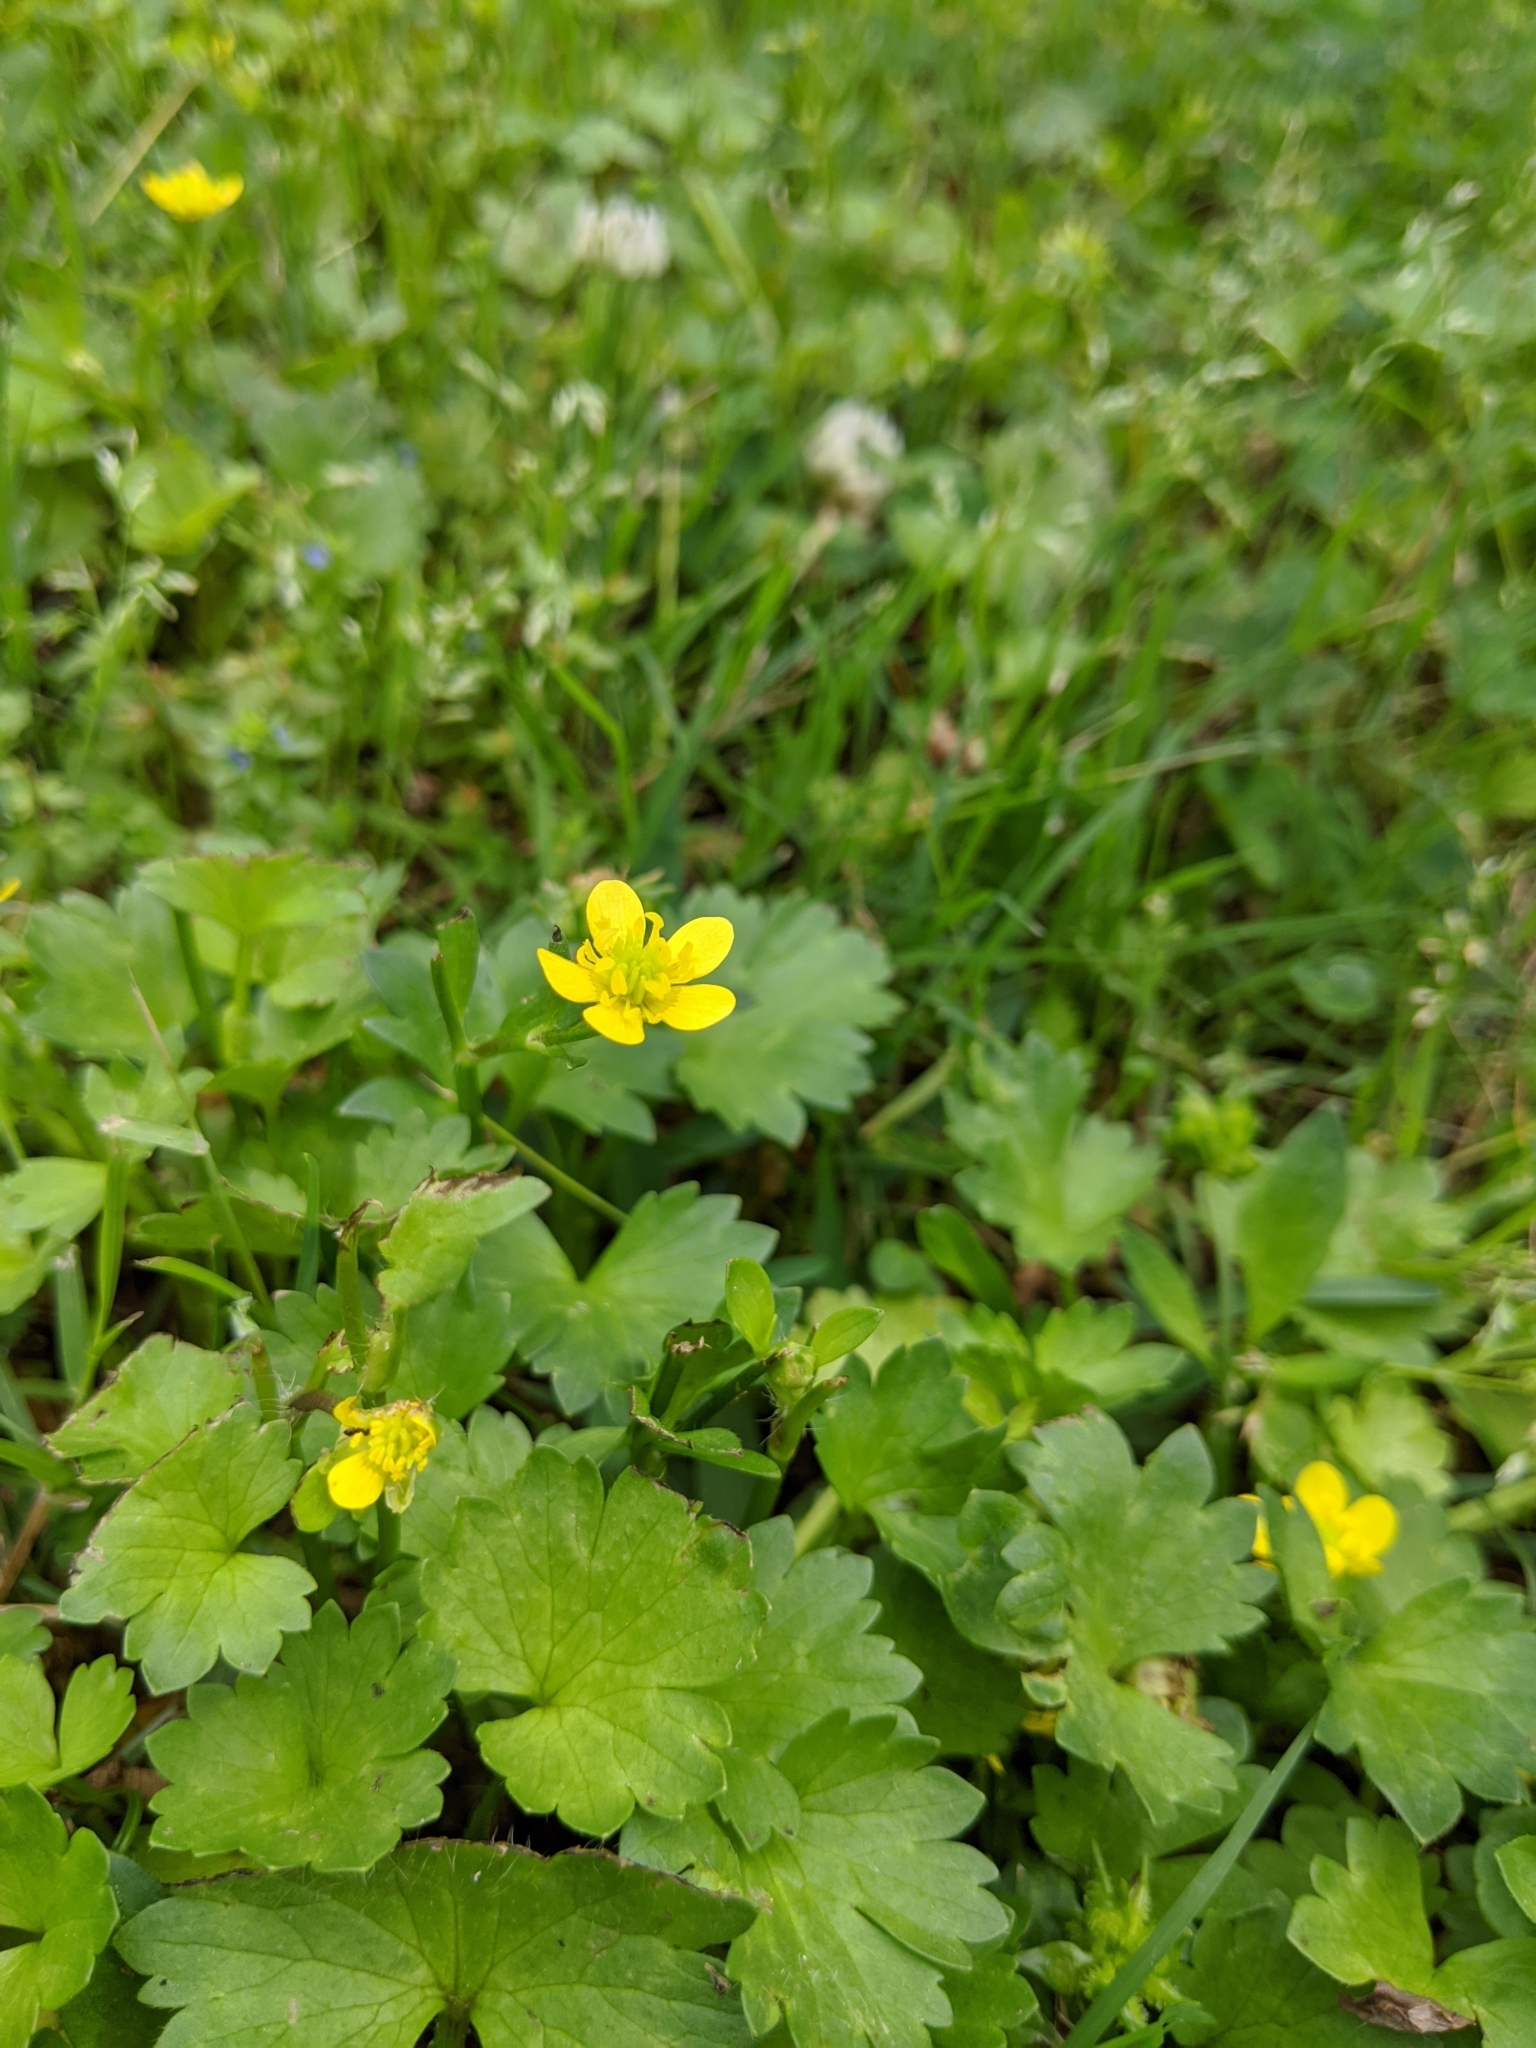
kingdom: Plantae
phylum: Tracheophyta
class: Magnoliopsida
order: Ranunculales
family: Ranunculaceae
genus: Ranunculus
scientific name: Ranunculus muricatus
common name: Rough-fruited buttercup
